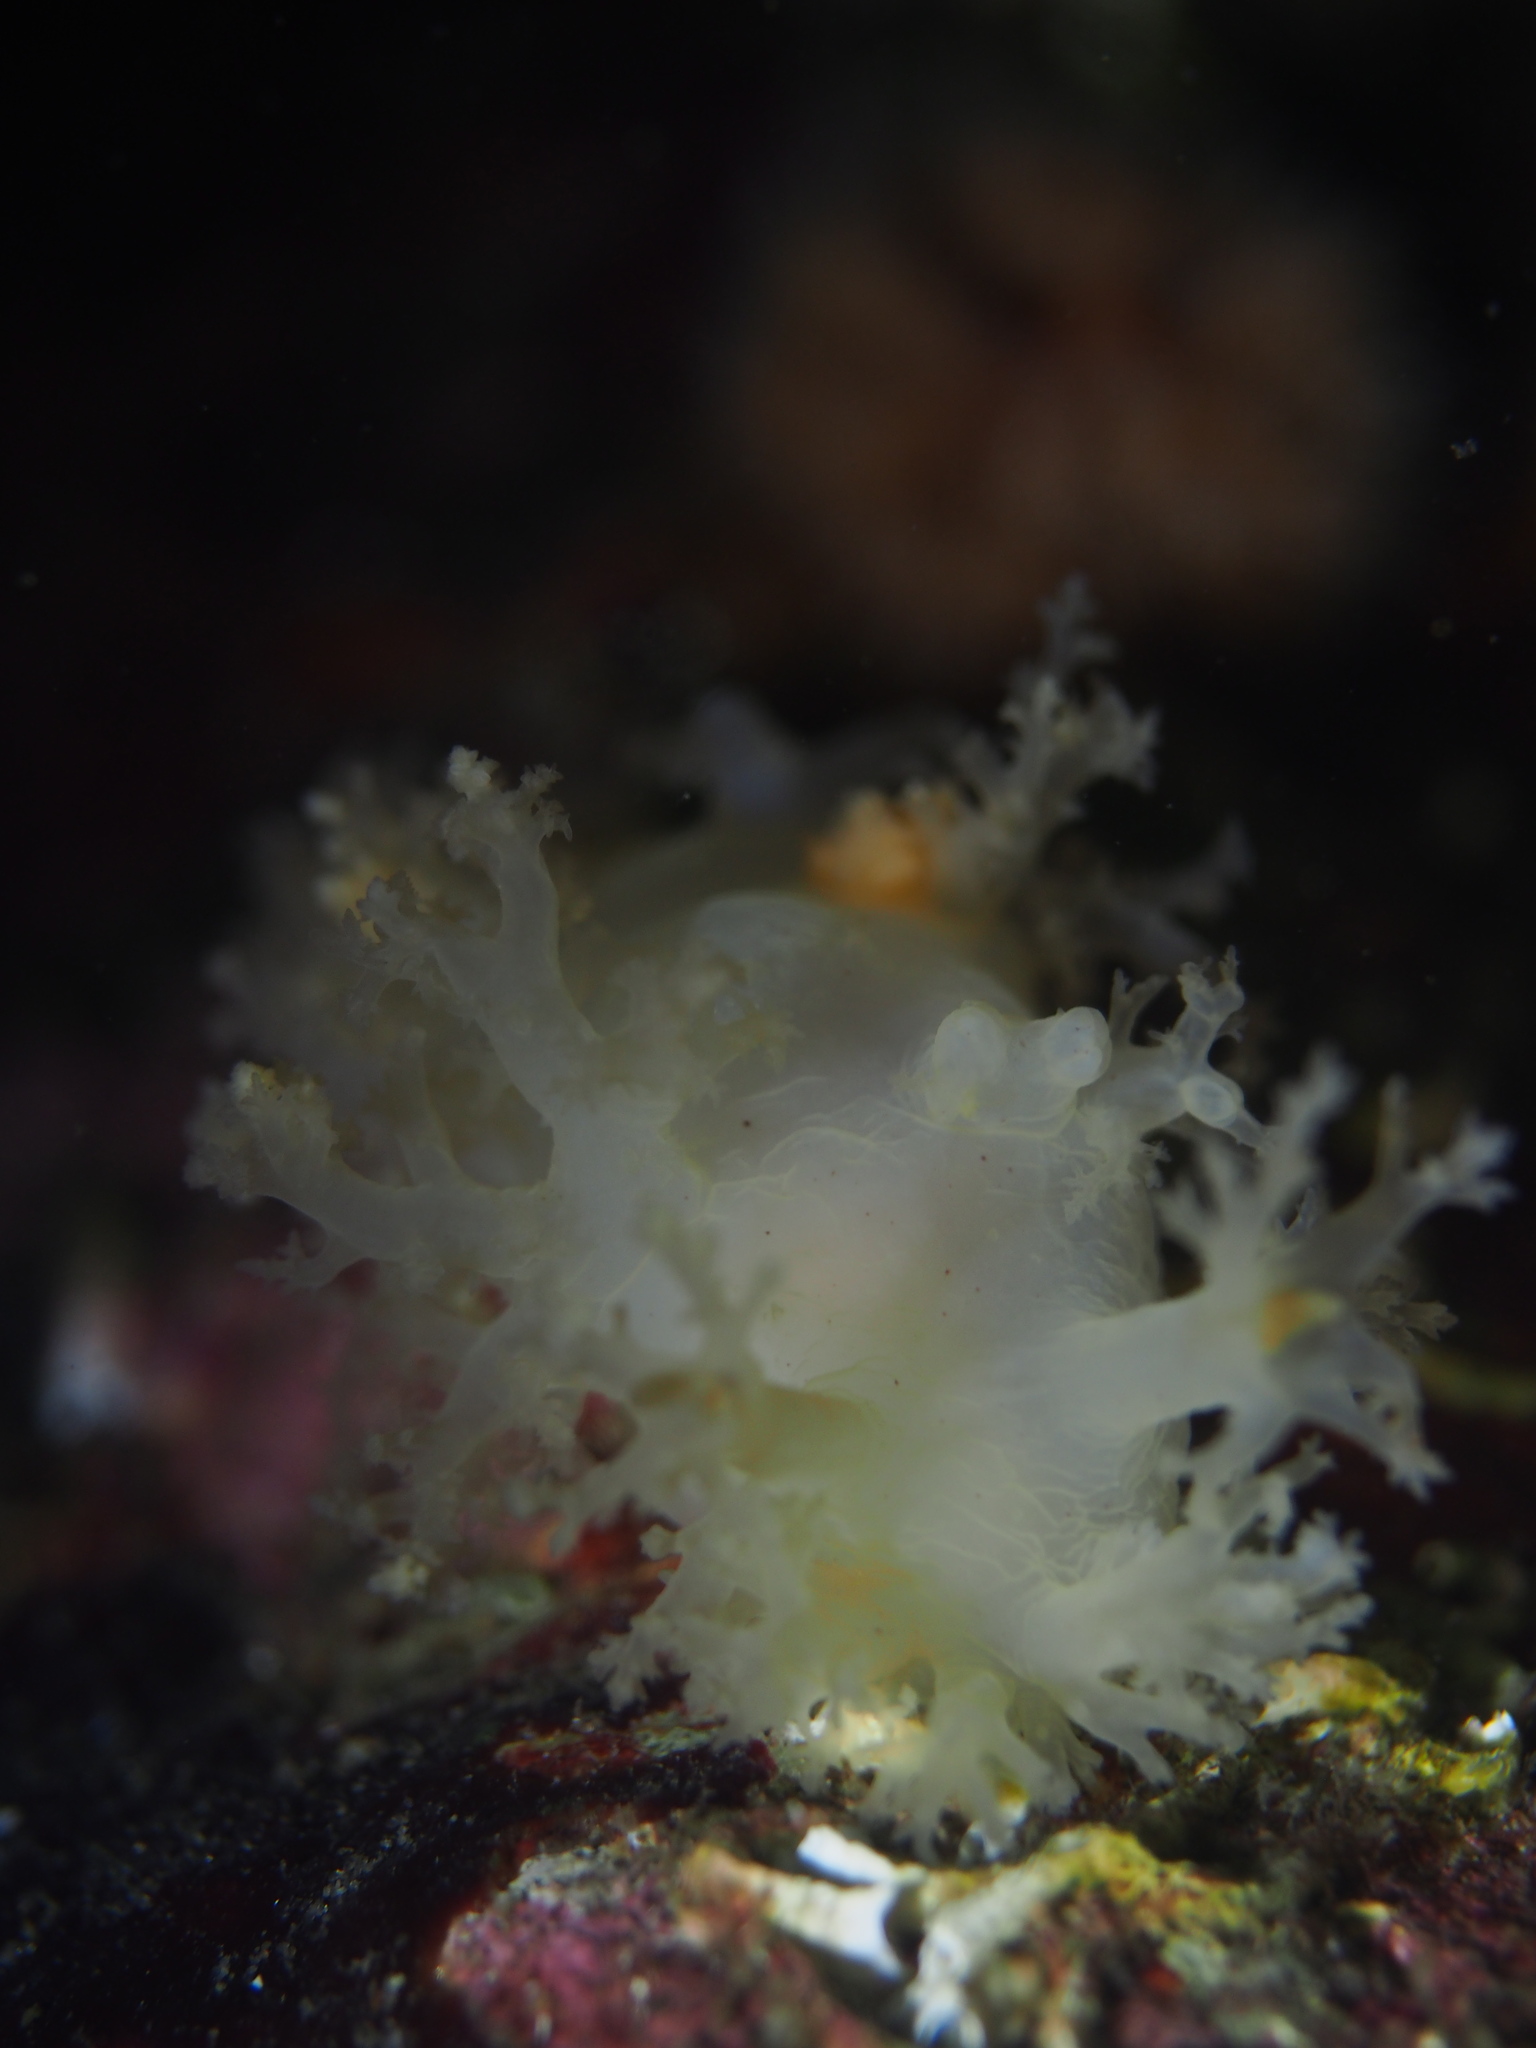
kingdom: Animalia
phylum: Mollusca
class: Gastropoda
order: Nudibranchia
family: Dendronotidae
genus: Dendronotus
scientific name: Dendronotus lacteus
